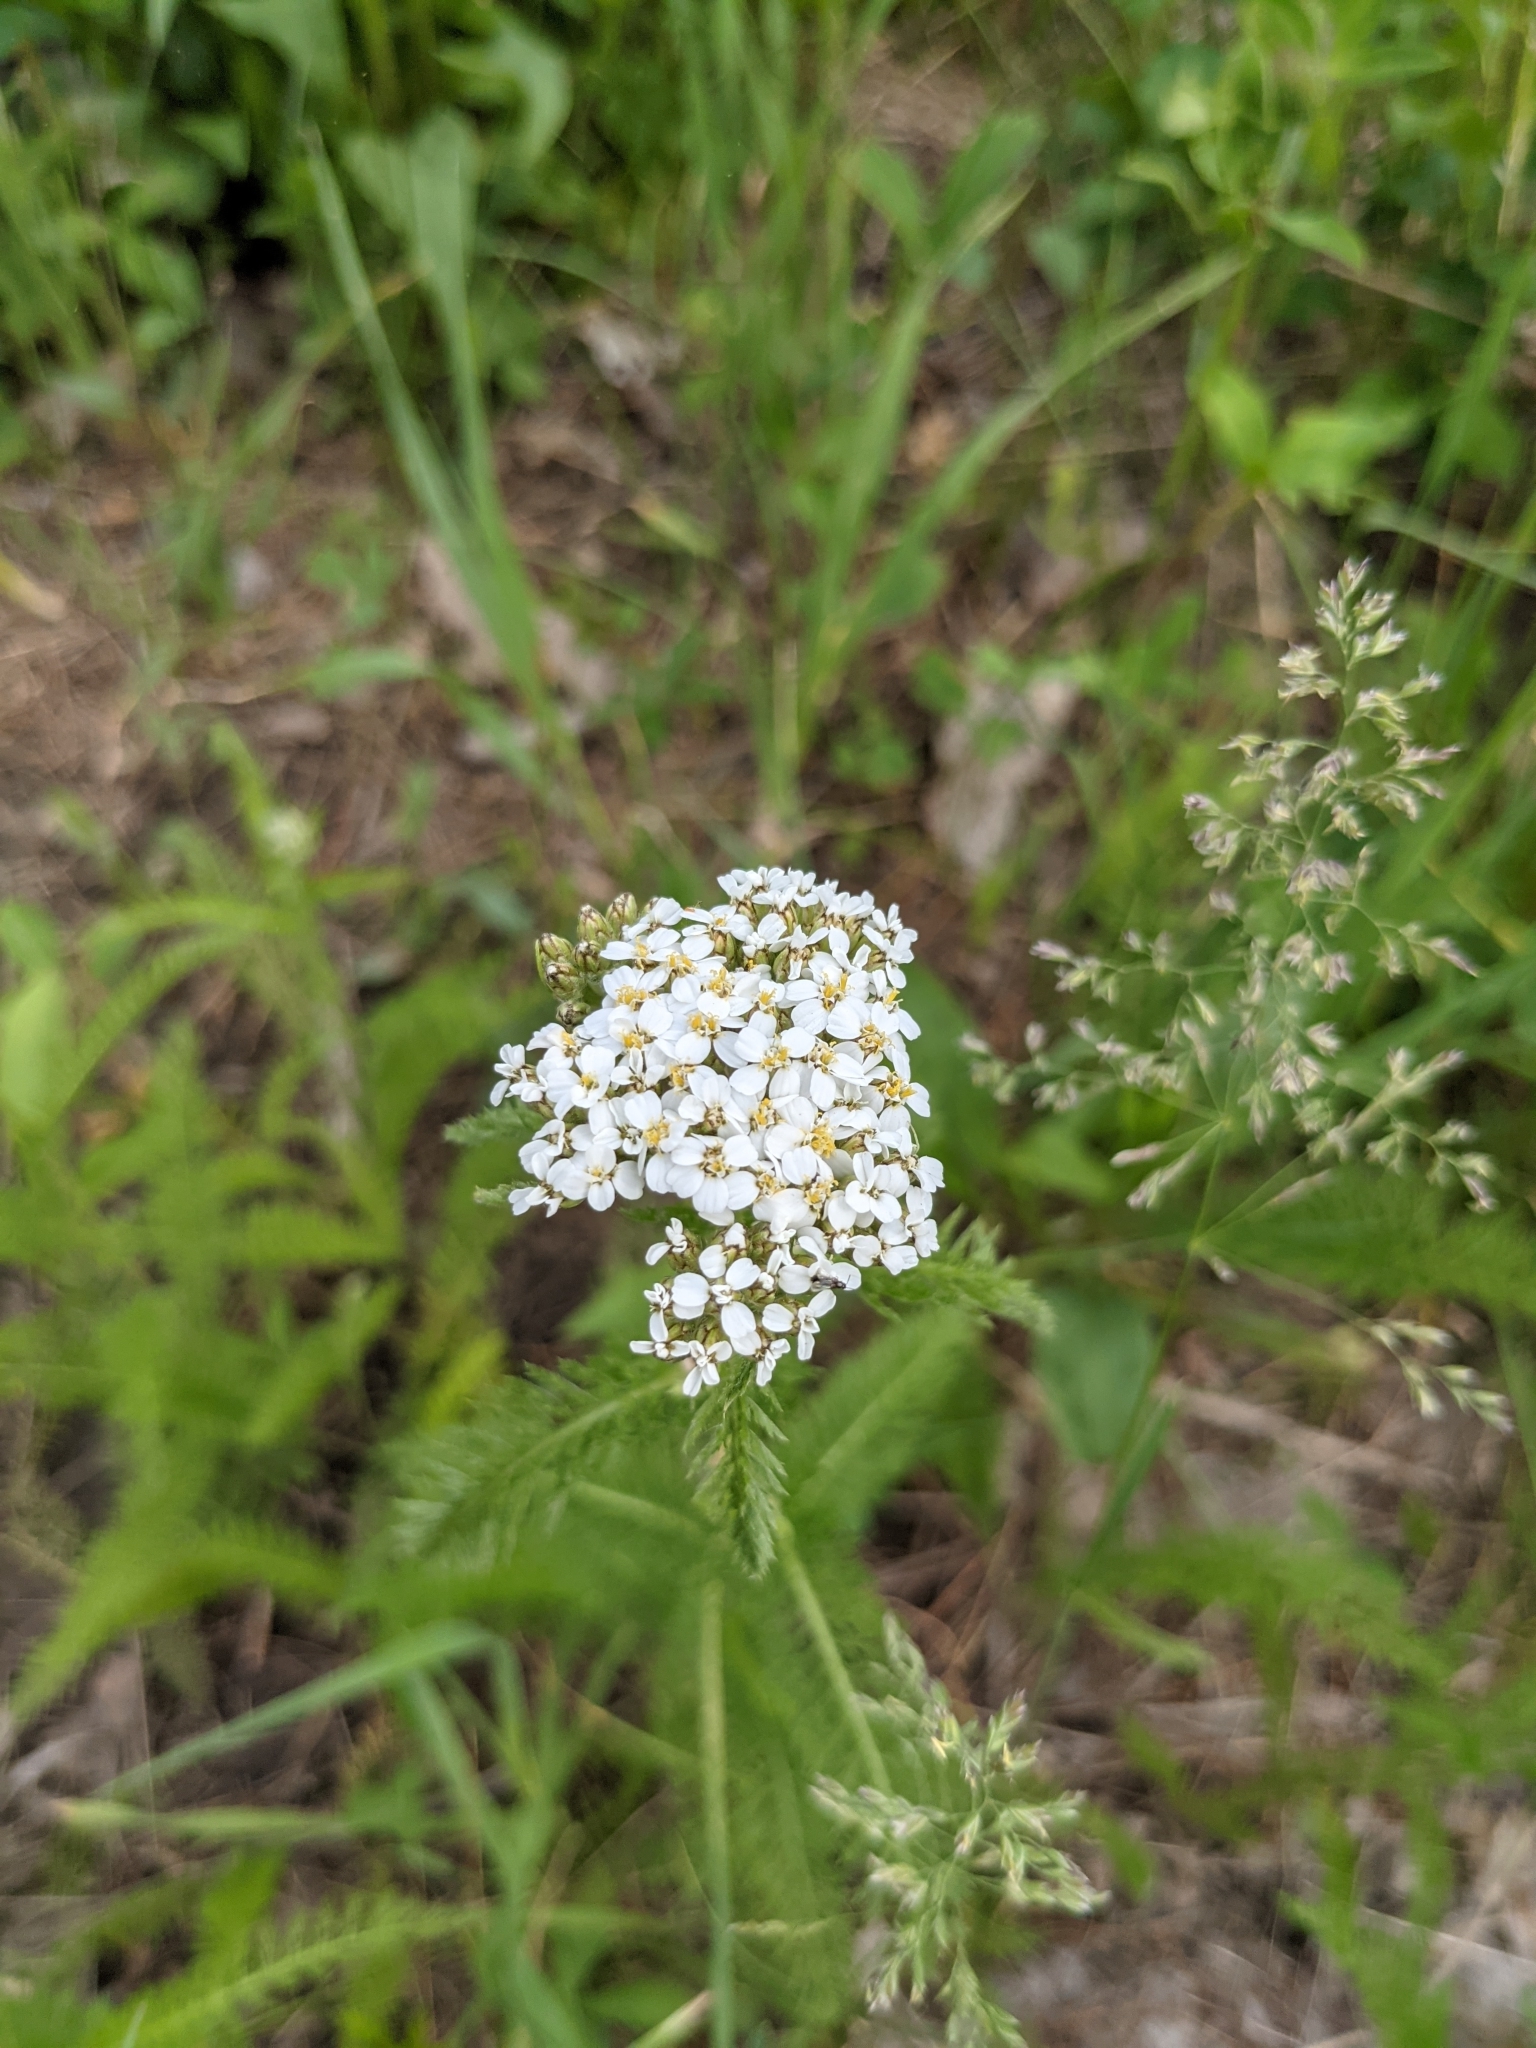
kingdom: Plantae
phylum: Tracheophyta
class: Magnoliopsida
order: Asterales
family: Asteraceae
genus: Achillea
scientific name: Achillea millefolium
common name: Yarrow
